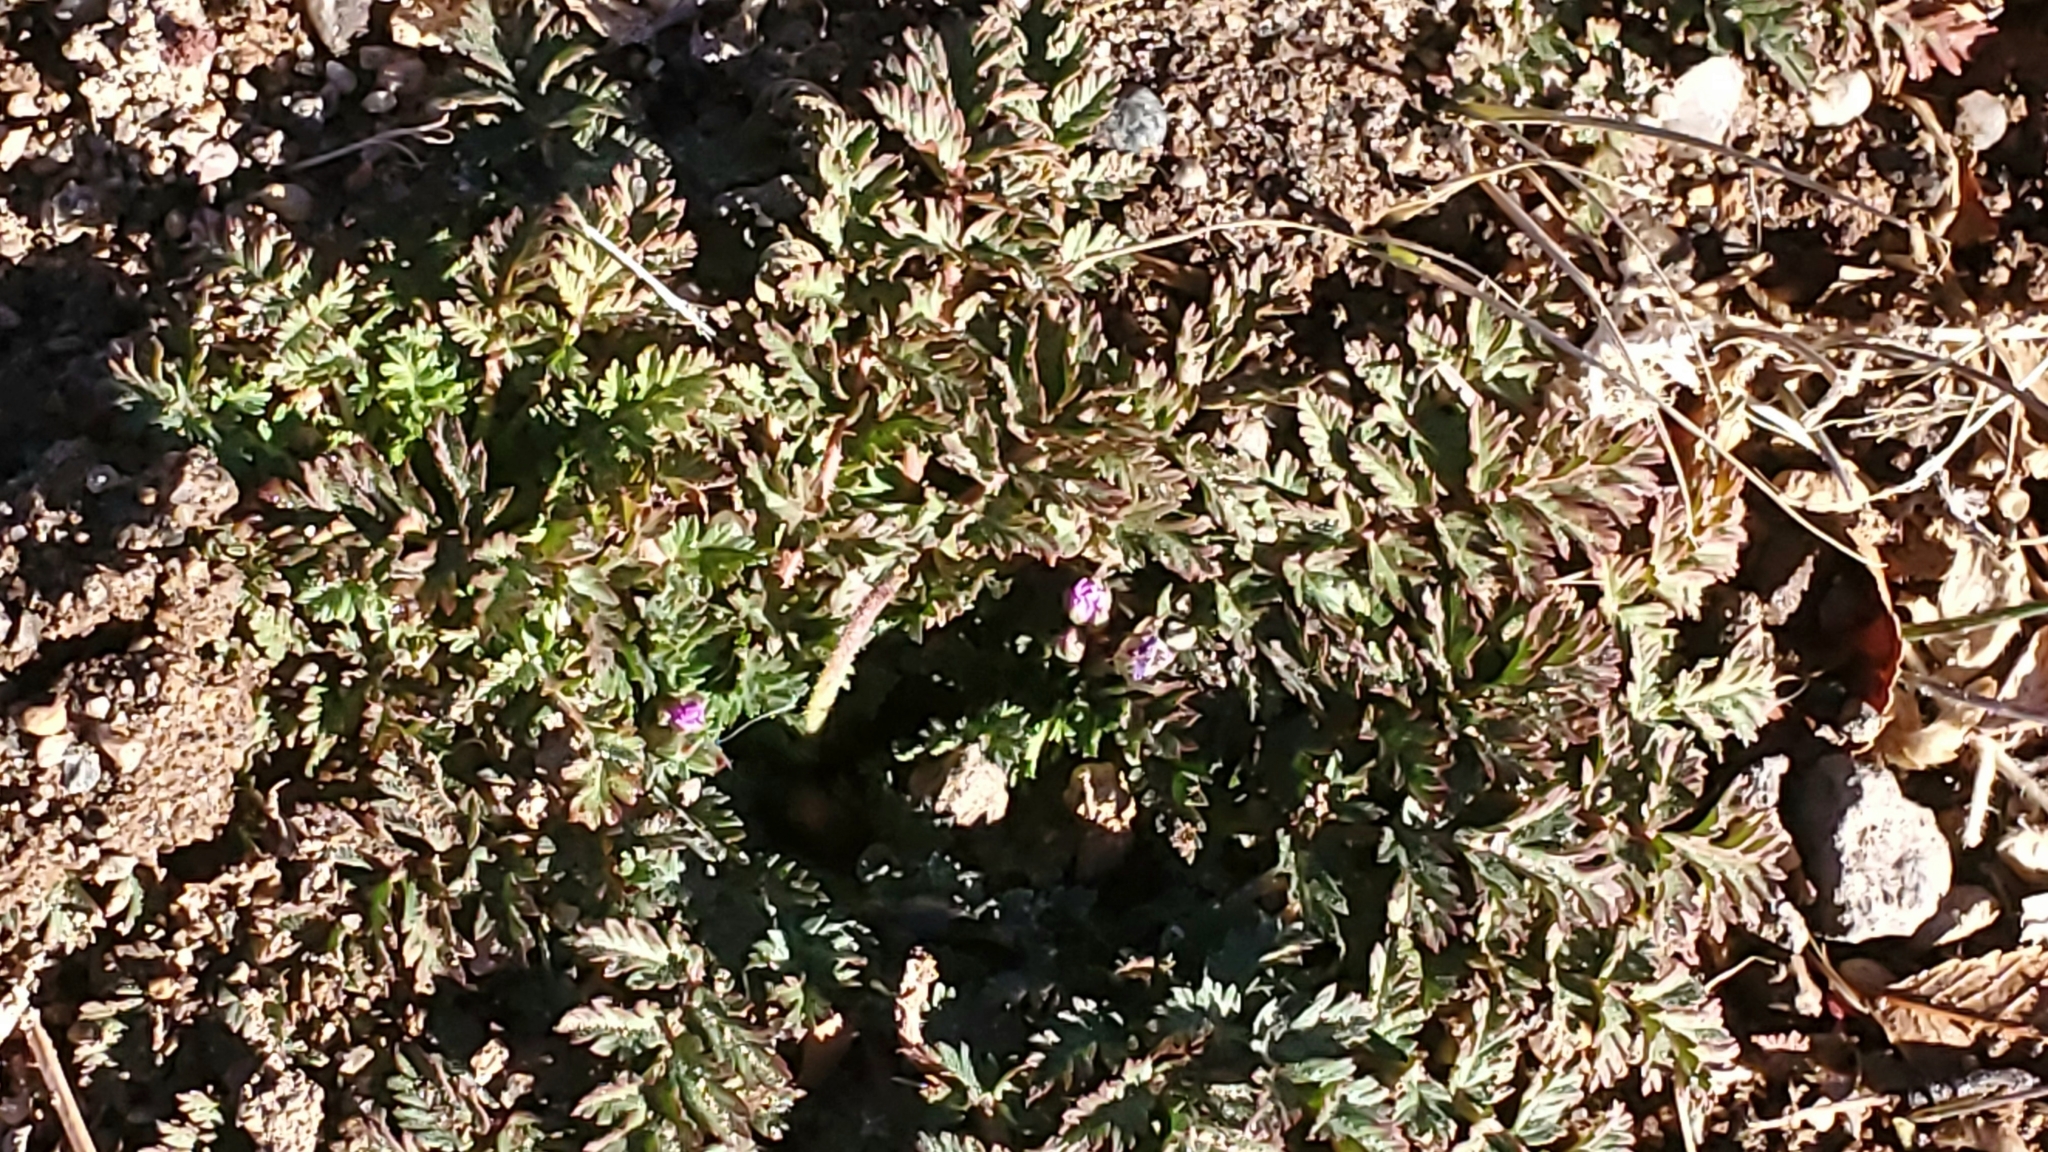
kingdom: Plantae
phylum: Tracheophyta
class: Magnoliopsida
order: Geraniales
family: Geraniaceae
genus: Erodium
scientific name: Erodium cicutarium
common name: Common stork's-bill
